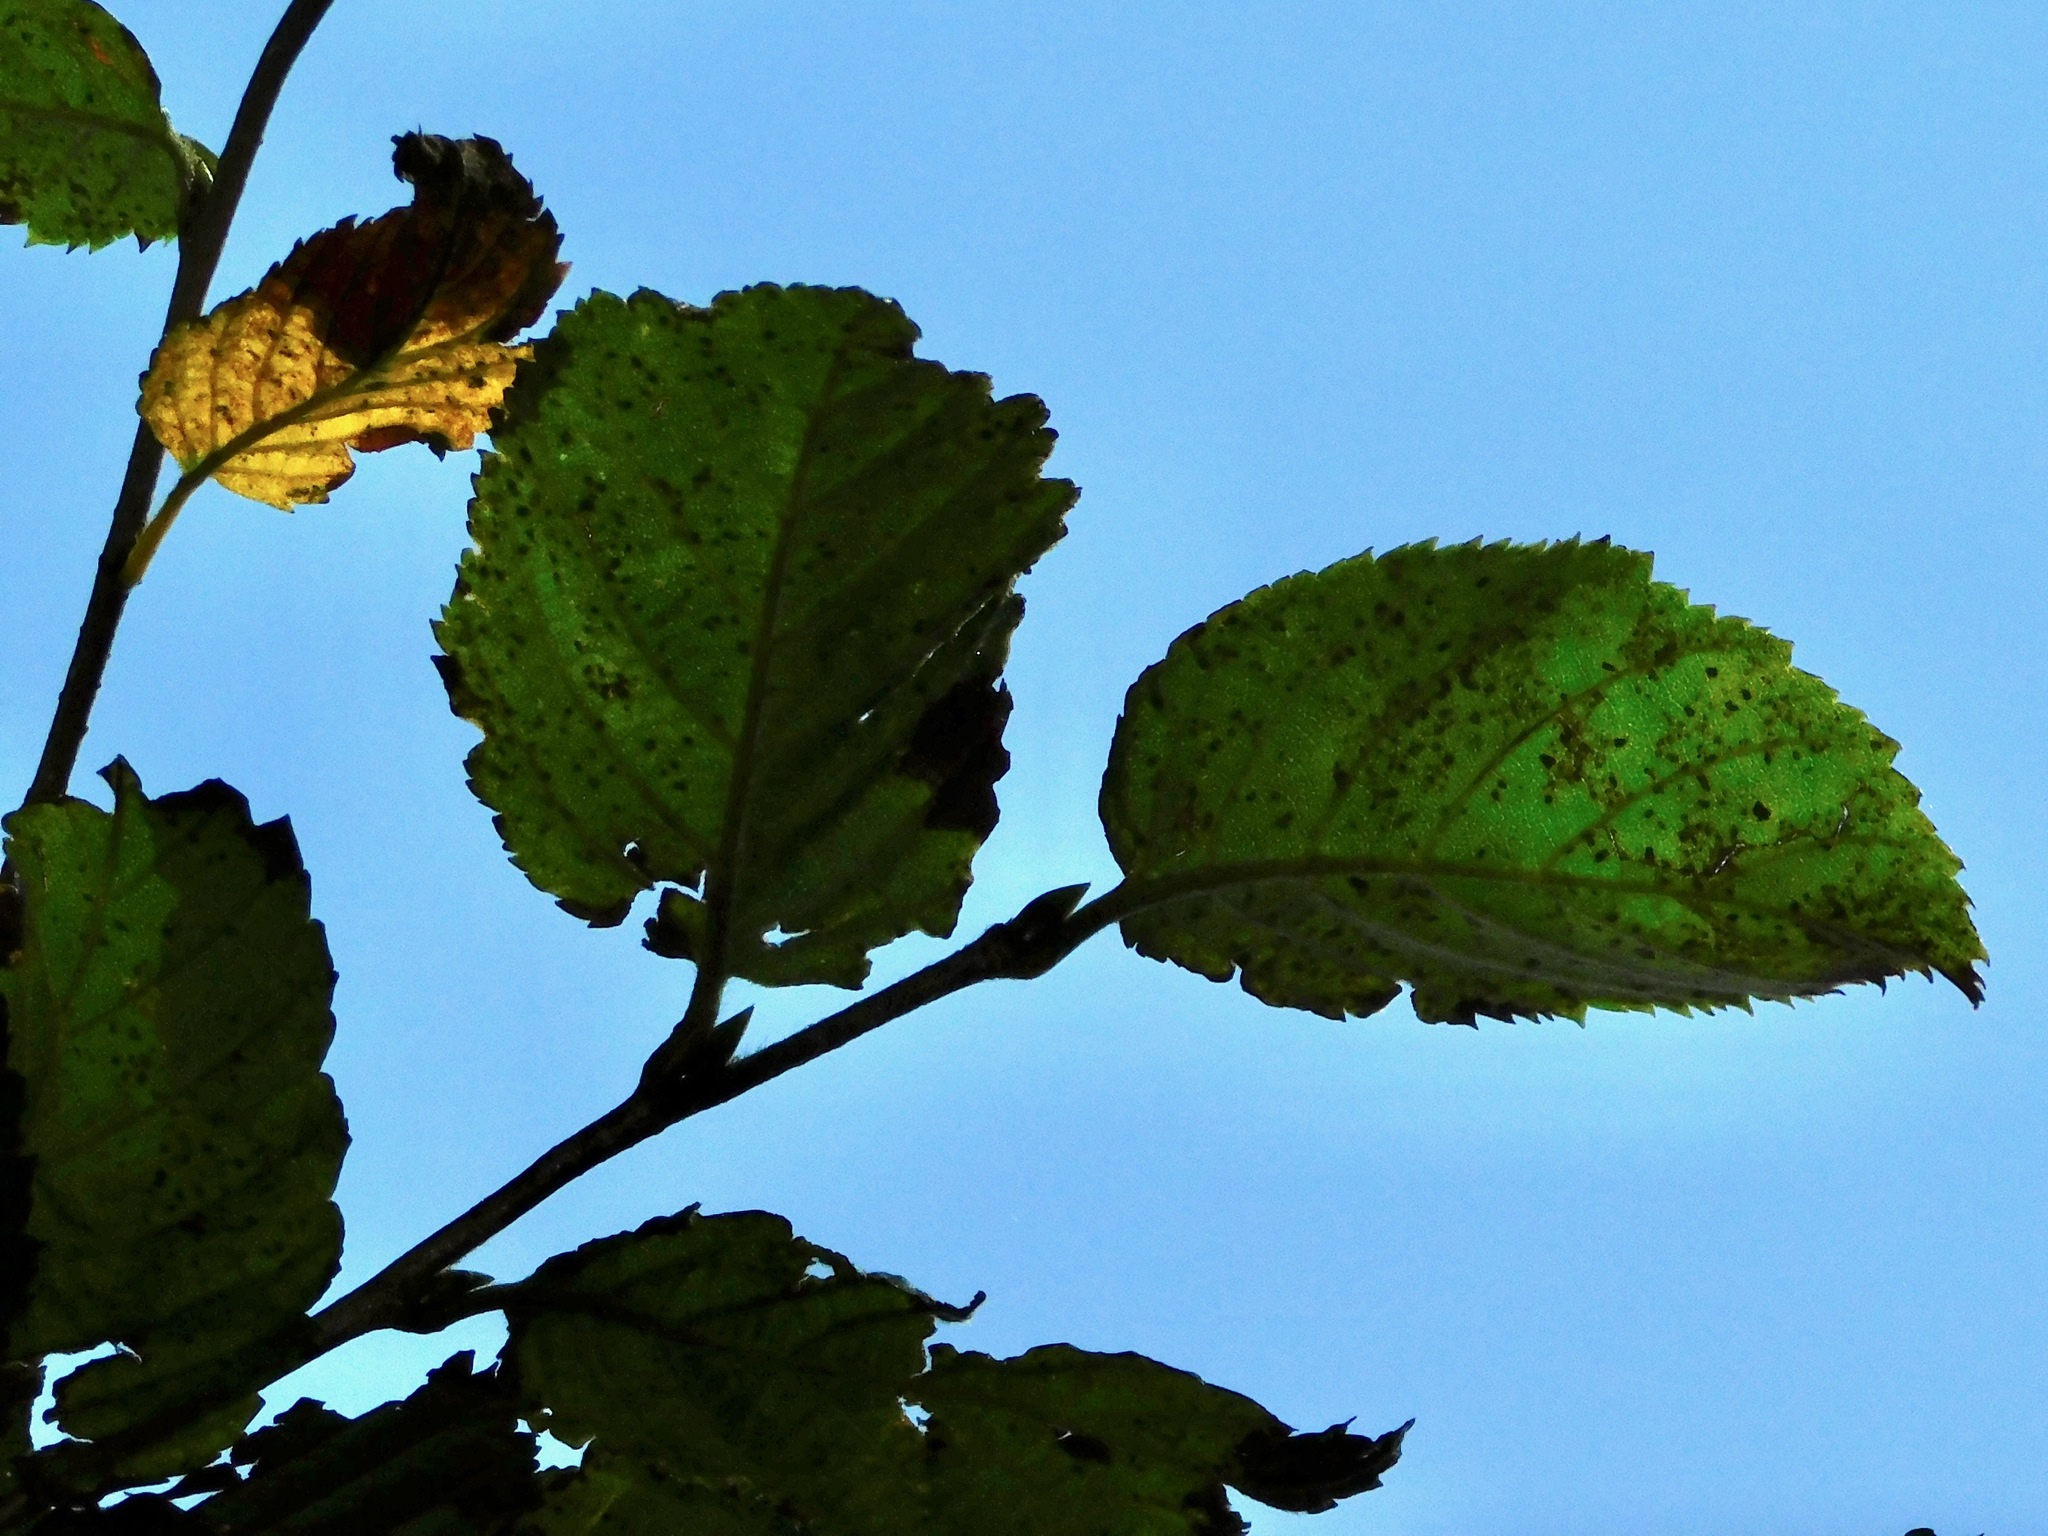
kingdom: Plantae
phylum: Tracheophyta
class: Magnoliopsida
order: Fagales
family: Betulaceae
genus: Betula
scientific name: Betula alleghaniensis
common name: Yellow birch
